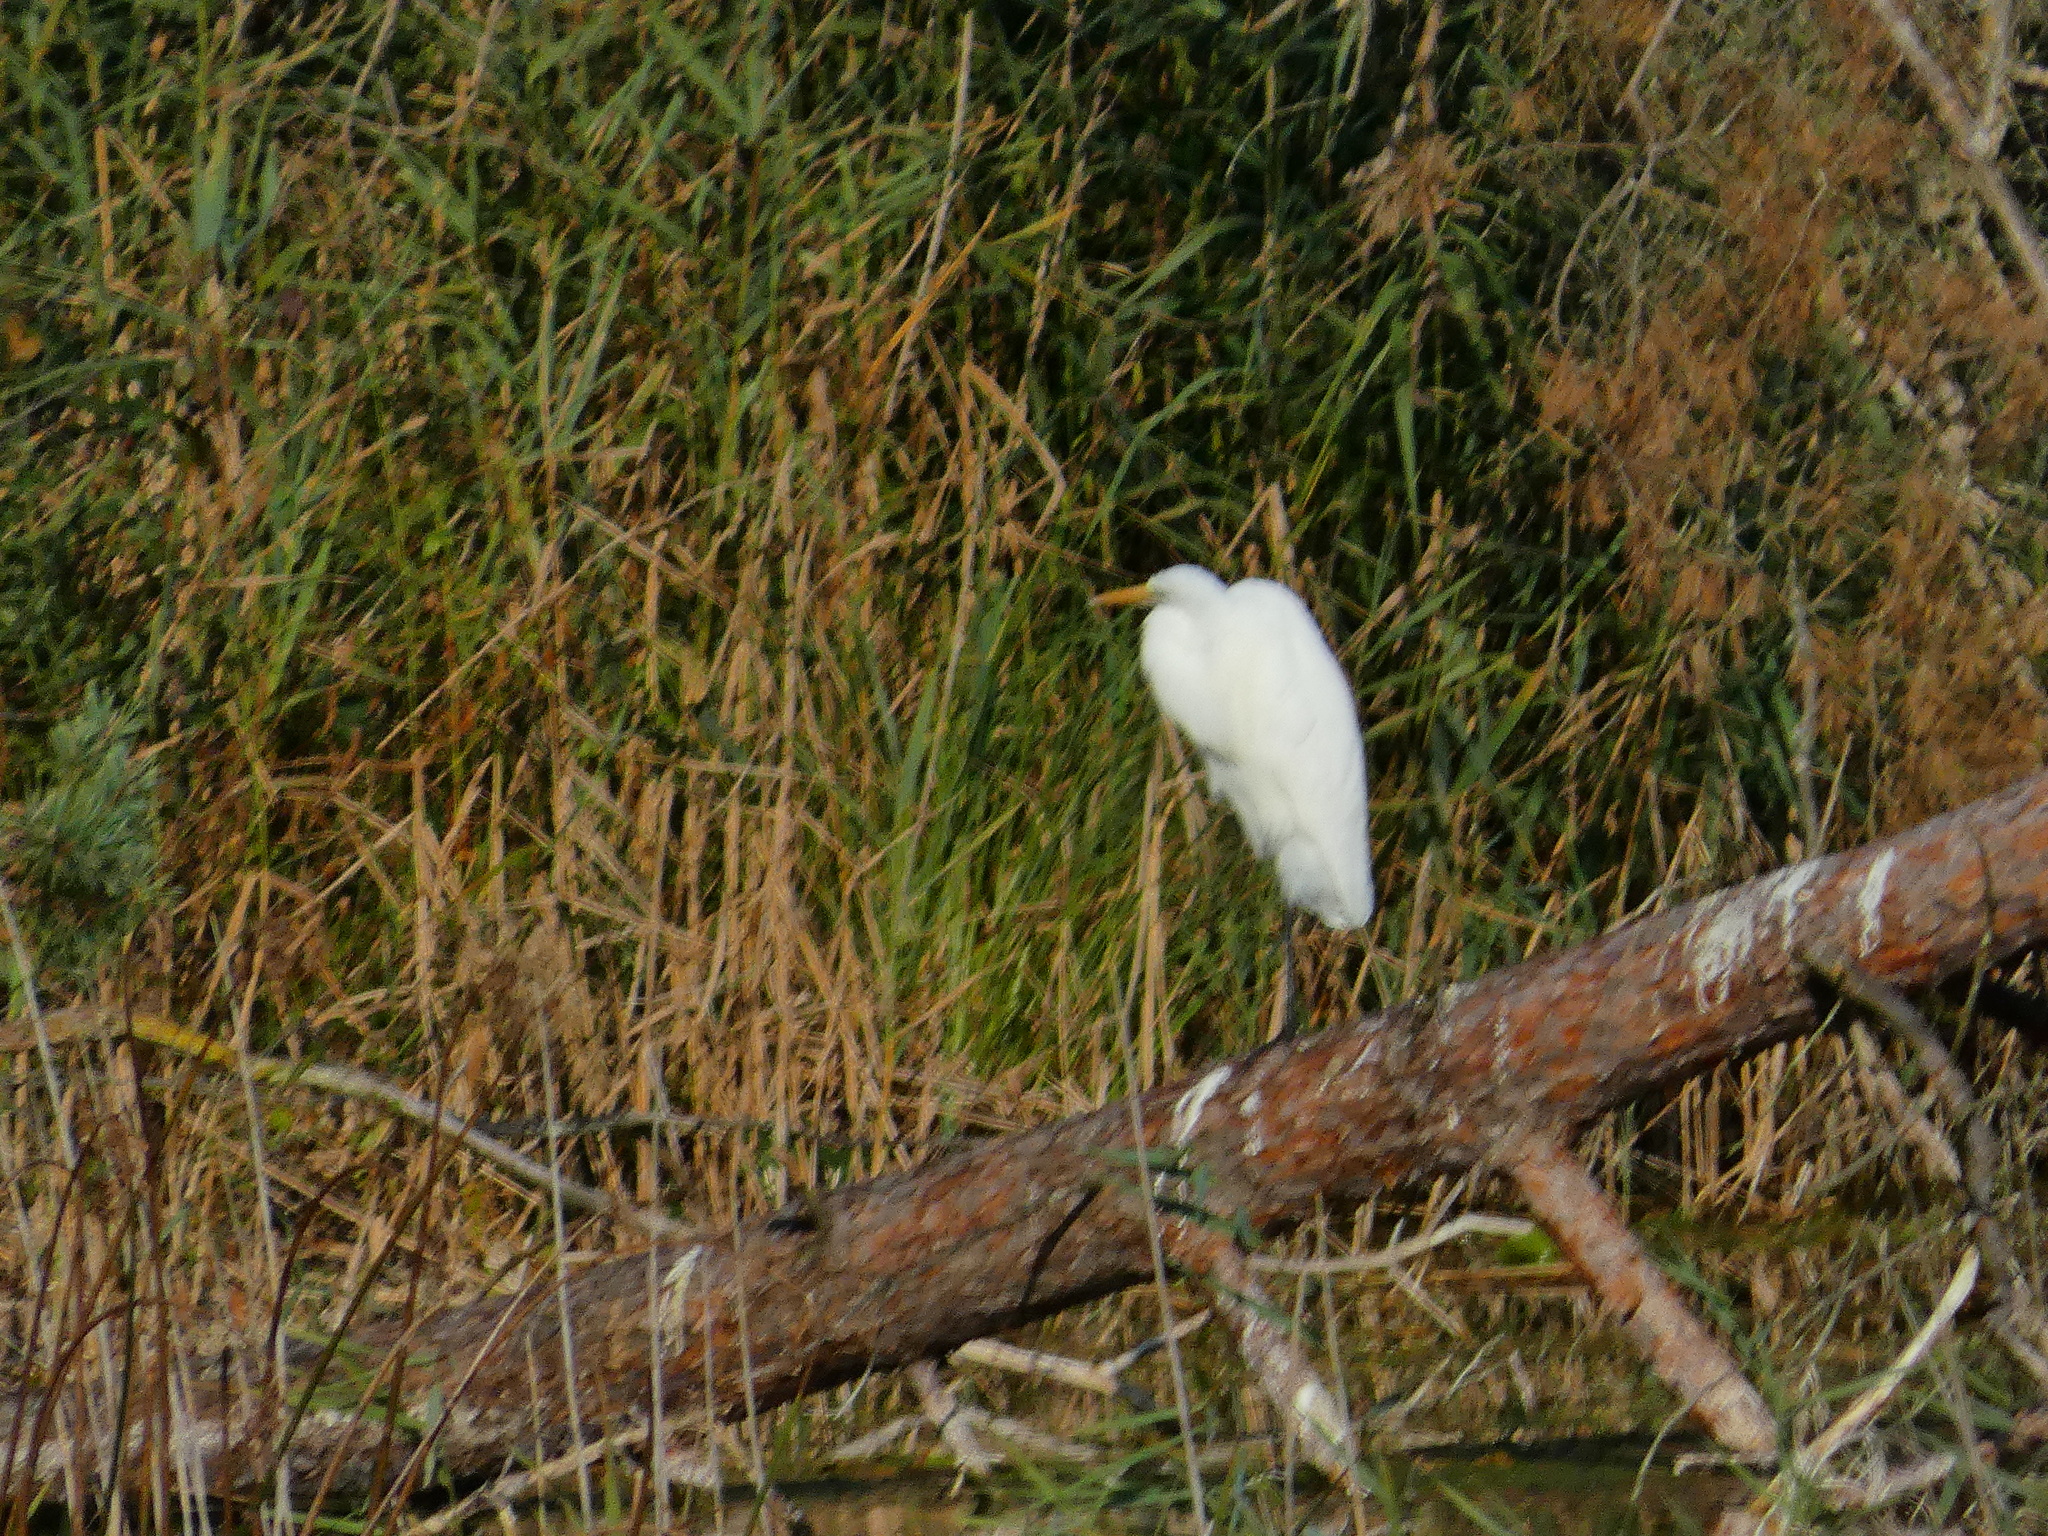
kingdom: Animalia
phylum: Chordata
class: Aves
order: Pelecaniformes
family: Ardeidae
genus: Ardea
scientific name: Ardea alba
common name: Great egret
